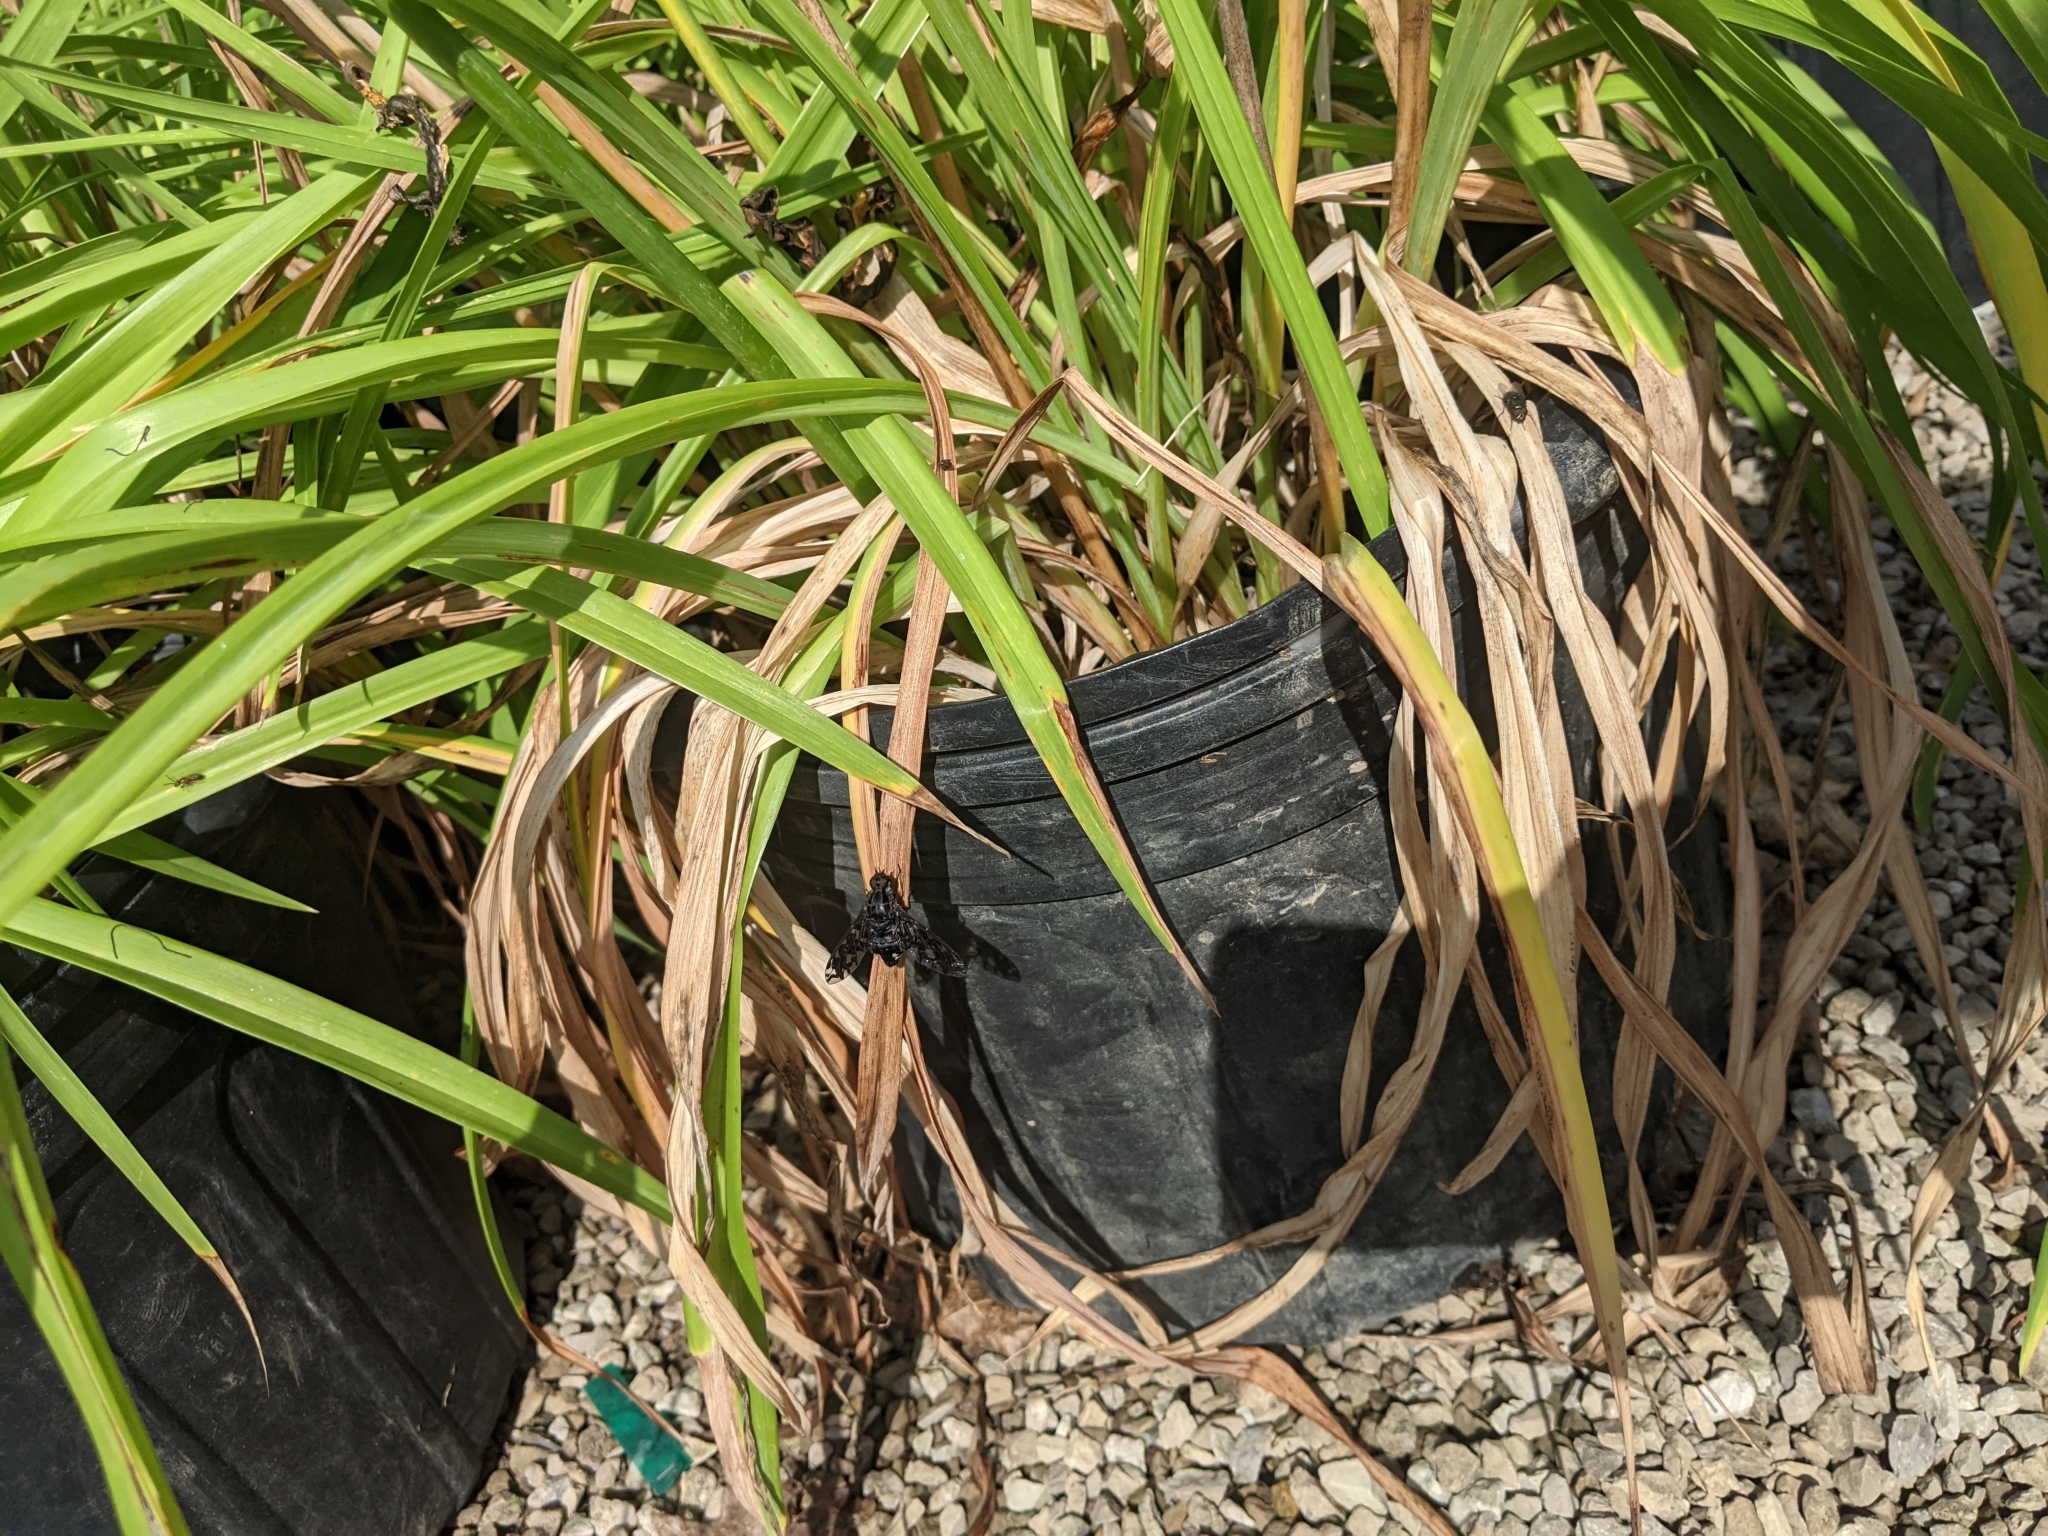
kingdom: Animalia
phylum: Arthropoda
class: Insecta
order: Diptera
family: Bombyliidae
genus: Xenox
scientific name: Xenox tigrinus
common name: Tiger bee fly
